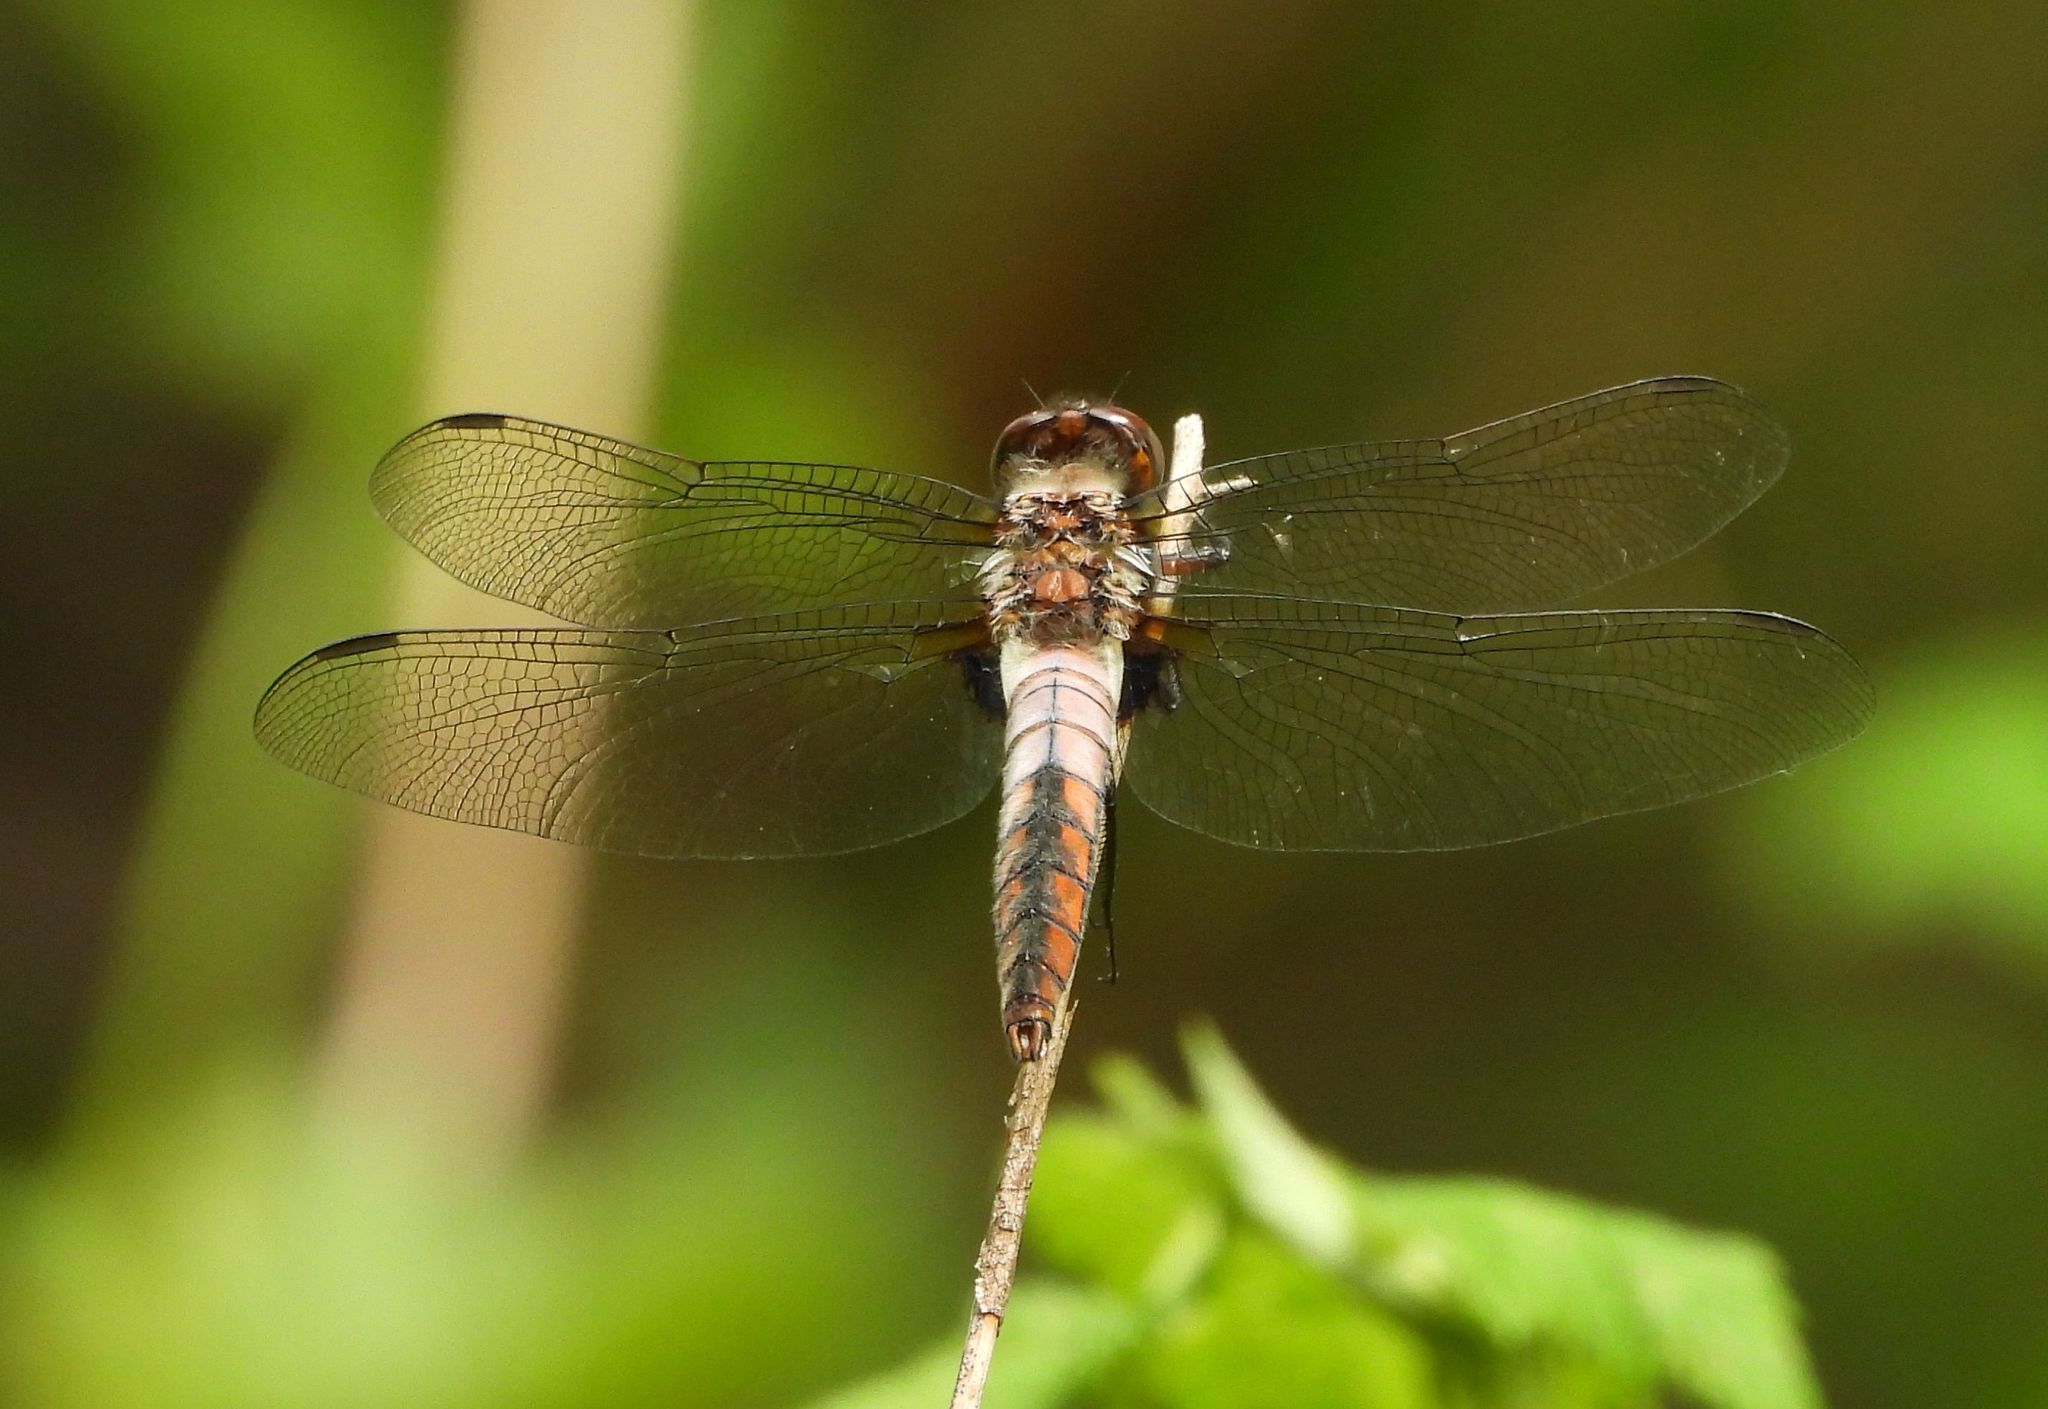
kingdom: Animalia
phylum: Arthropoda
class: Insecta
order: Odonata
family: Libellulidae
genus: Ladona
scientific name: Ladona julia
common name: Chalk-fronted corporal
